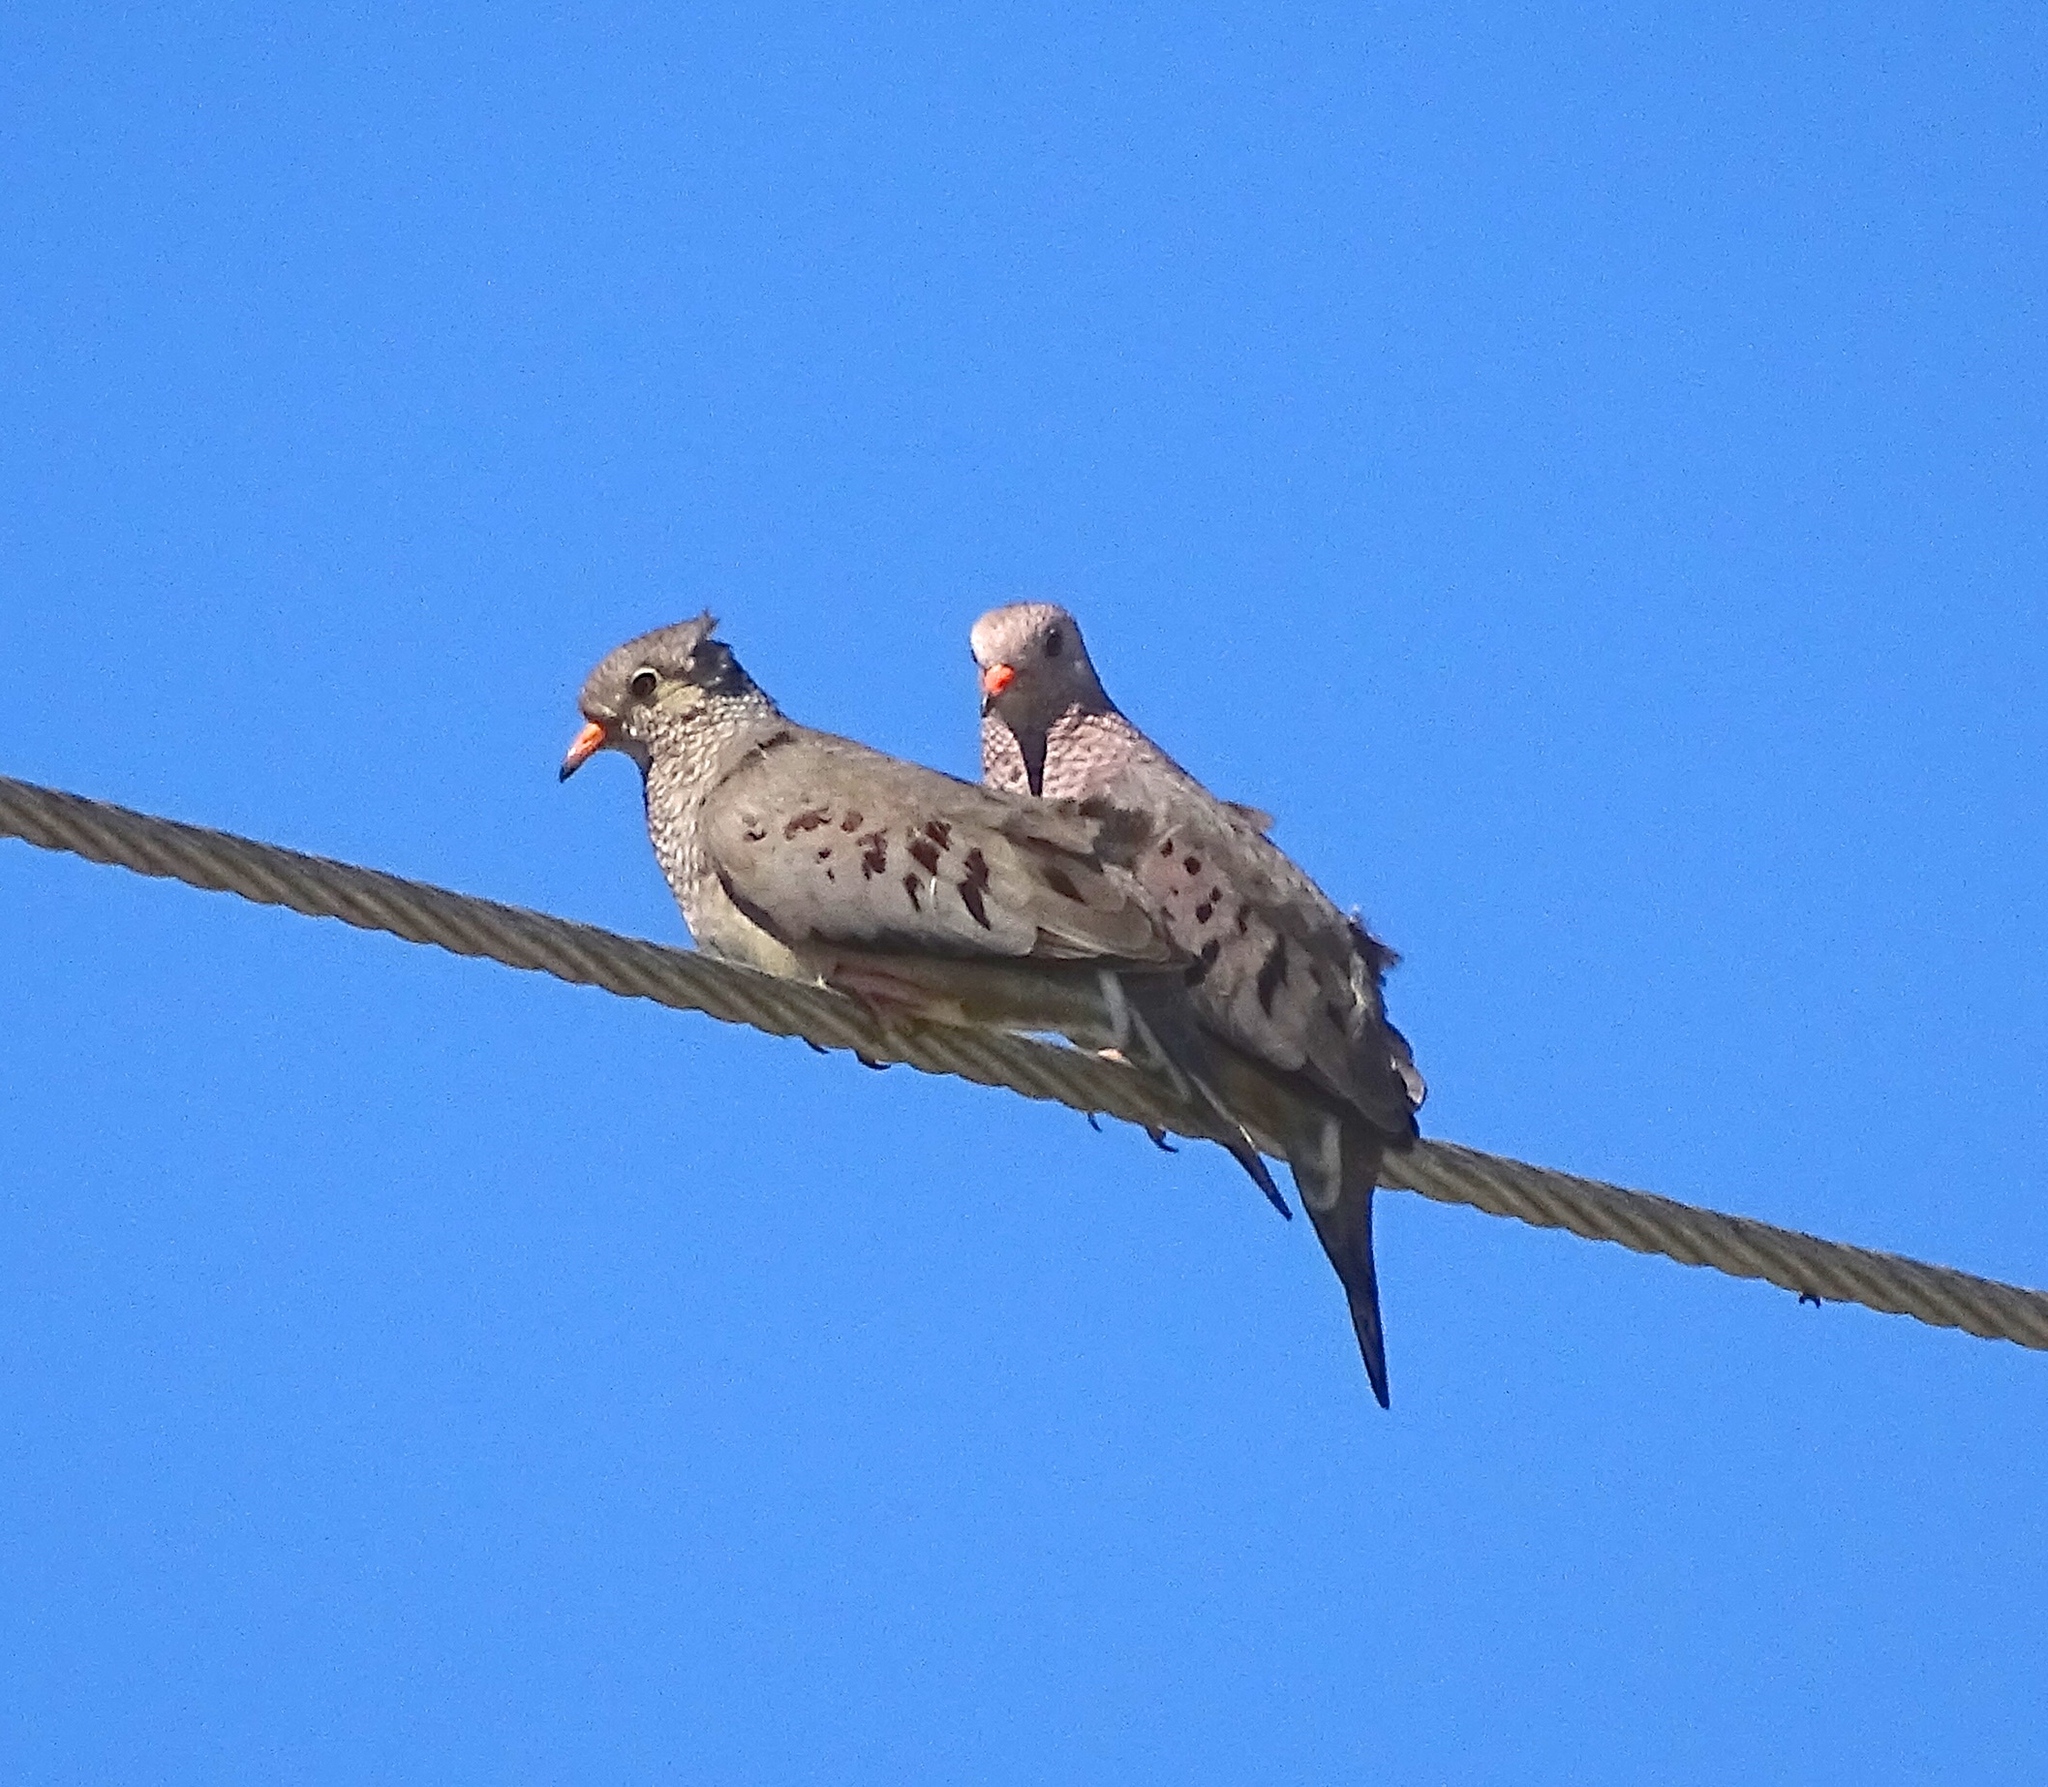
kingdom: Animalia
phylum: Chordata
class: Aves
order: Columbiformes
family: Columbidae
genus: Columbina
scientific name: Columbina passerina
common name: Common ground-dove
